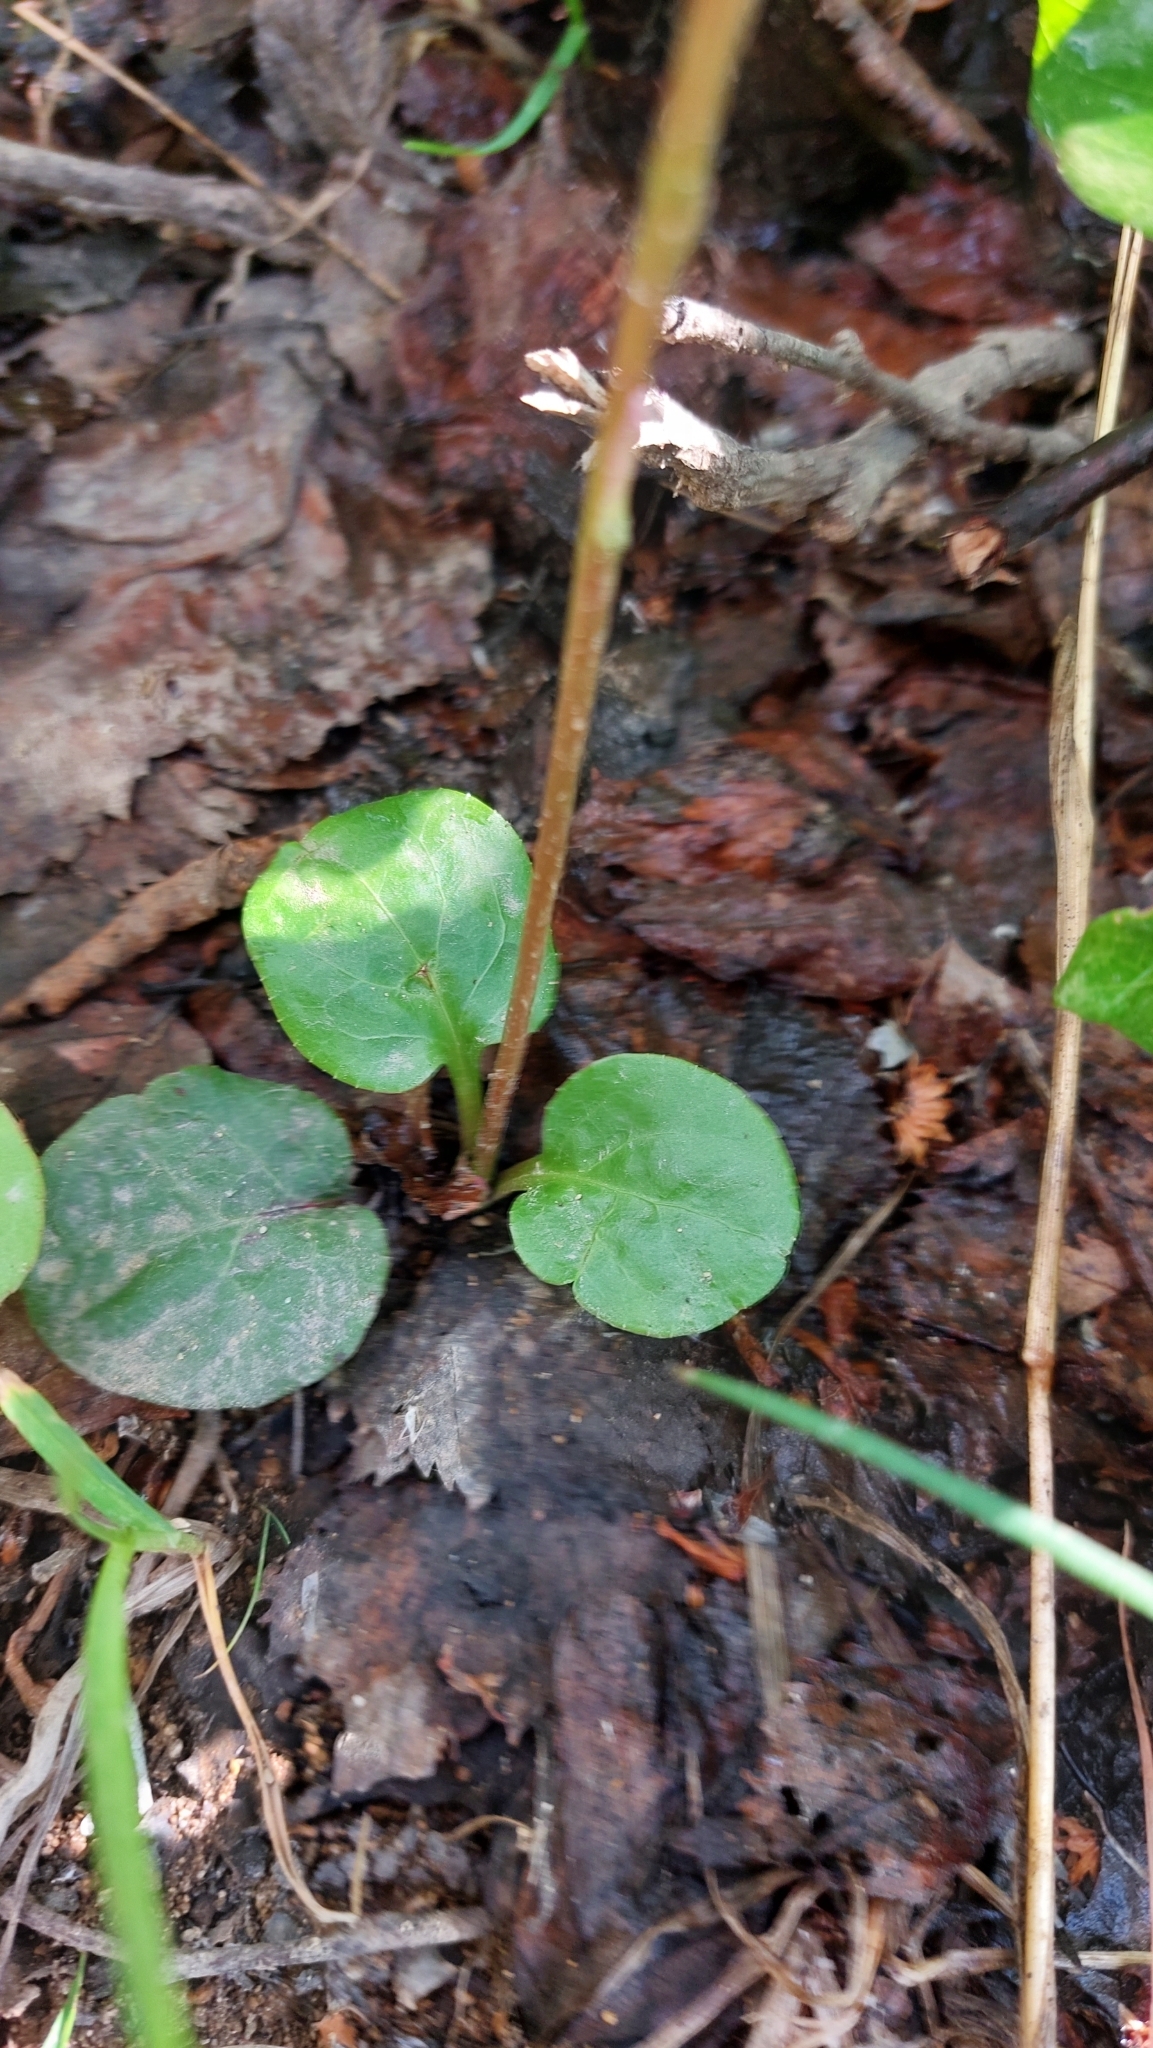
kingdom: Plantae
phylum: Tracheophyta
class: Magnoliopsida
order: Ericales
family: Ericaceae
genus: Pyrola
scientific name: Pyrola minor
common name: Common wintergreen
